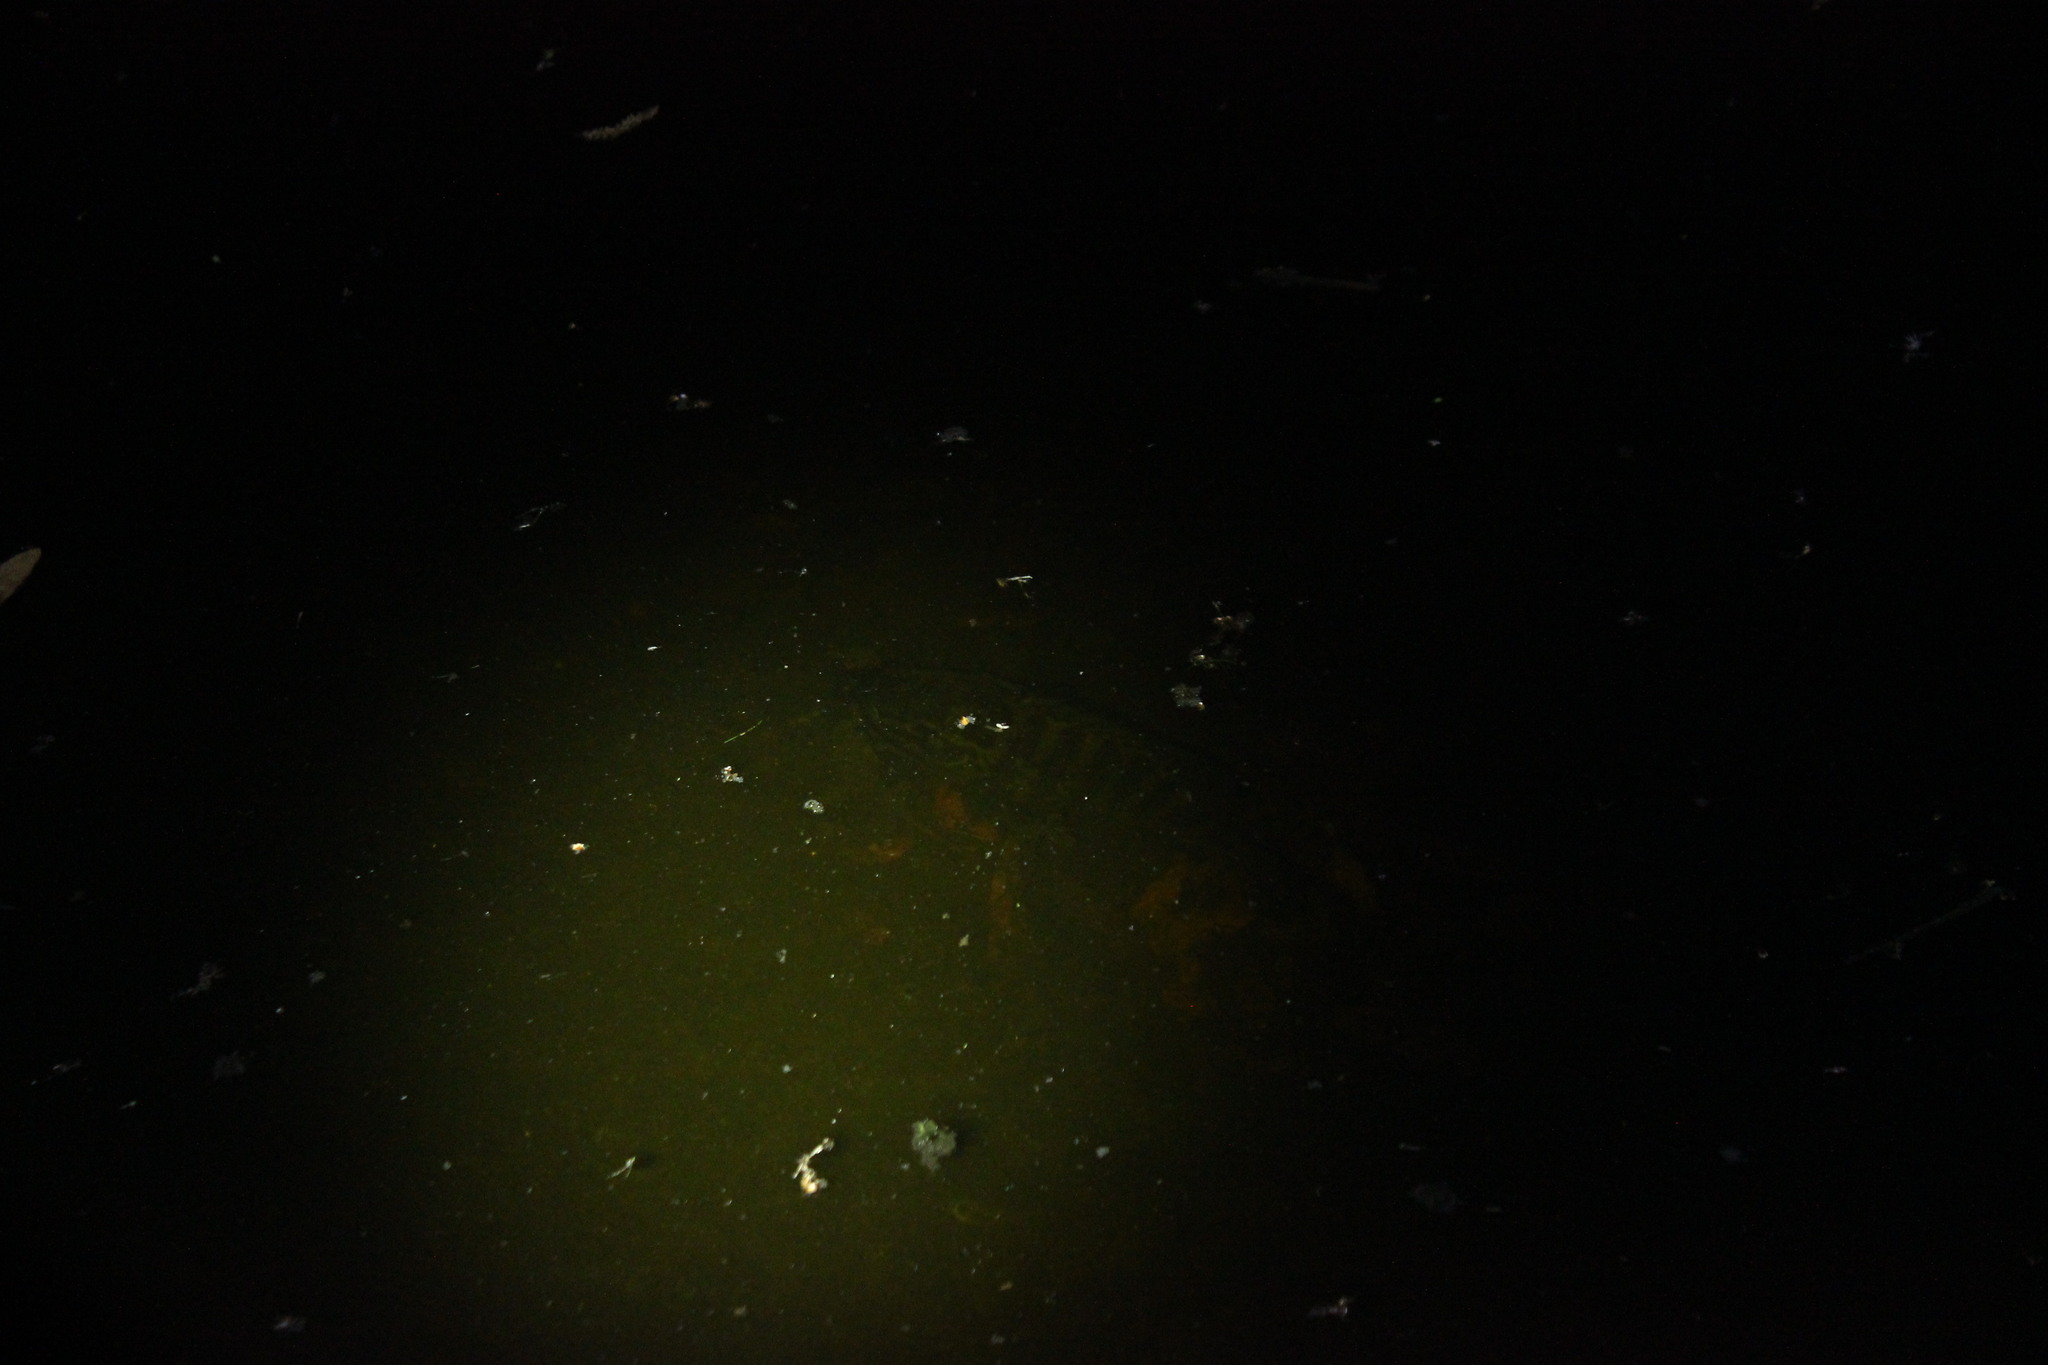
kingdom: Animalia
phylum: Chordata
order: Perciformes
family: Centrarchidae
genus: Lepomis
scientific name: Lepomis gulosus
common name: Warmouth
